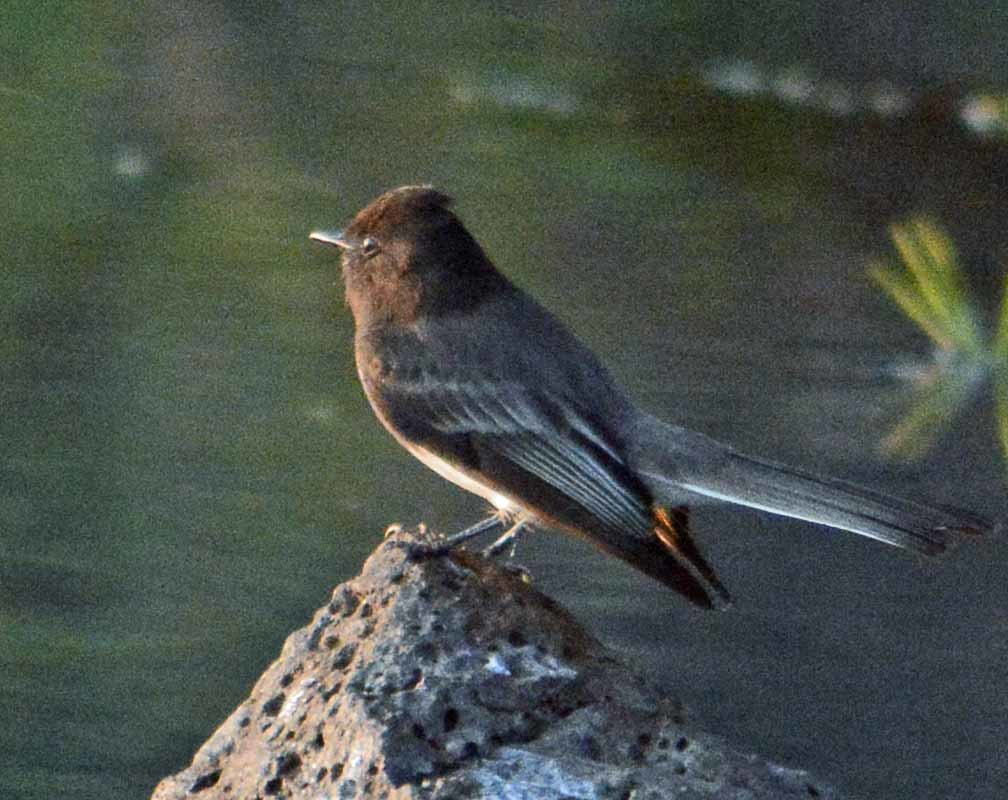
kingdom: Animalia
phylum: Chordata
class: Aves
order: Passeriformes
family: Tyrannidae
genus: Sayornis
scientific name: Sayornis nigricans
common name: Black phoebe
